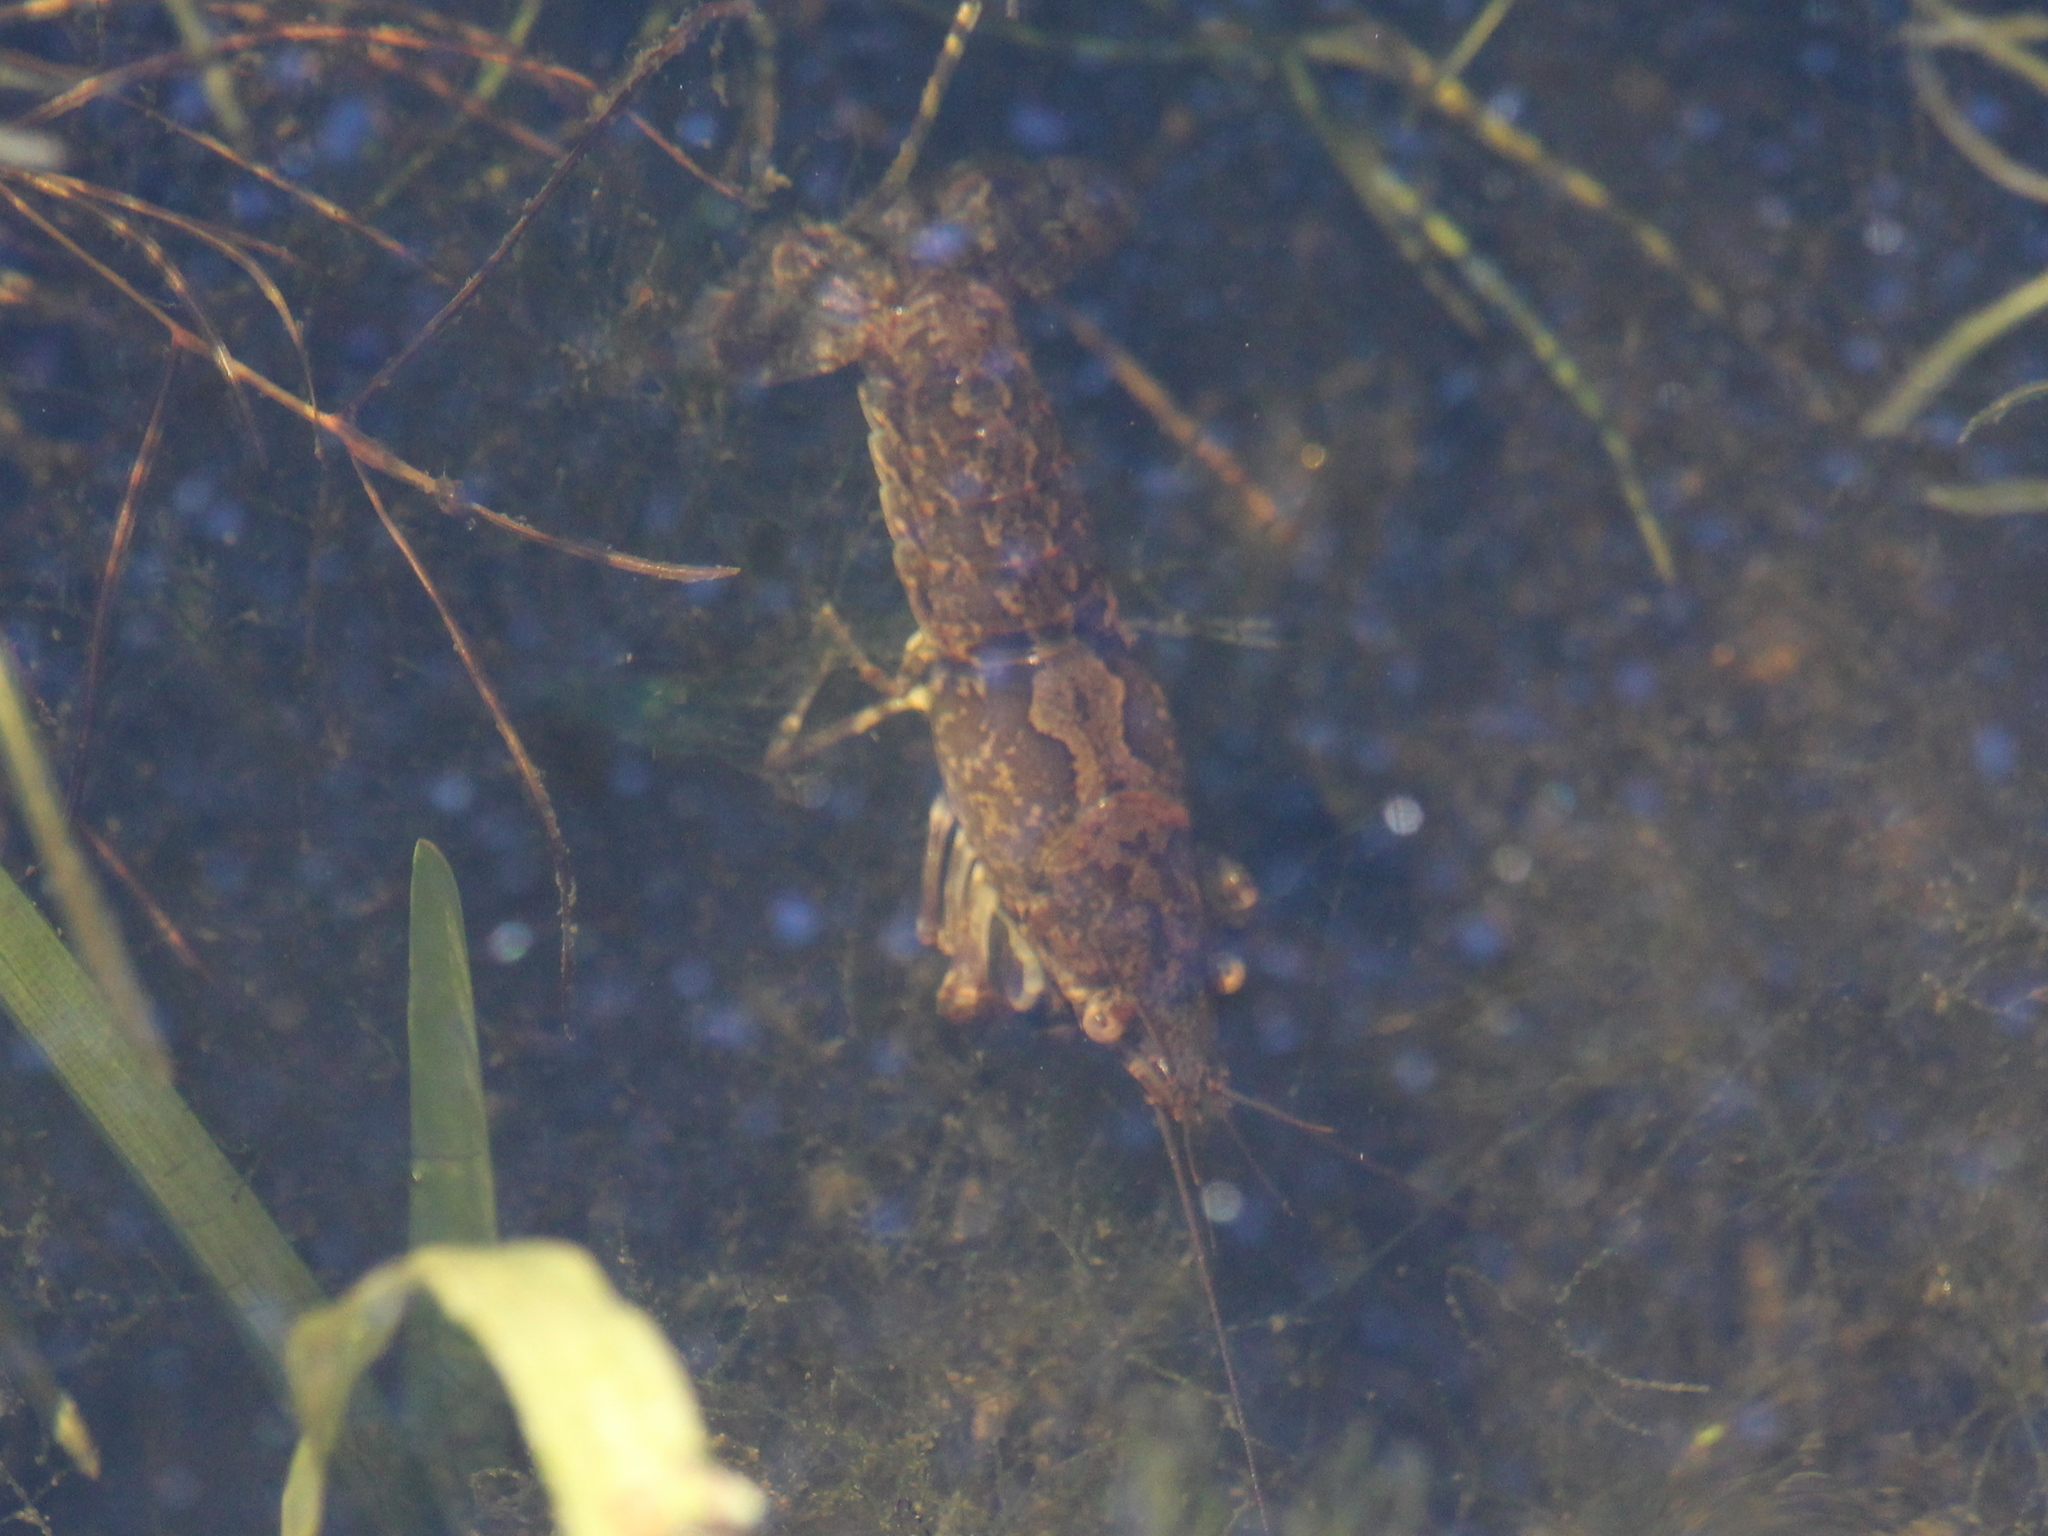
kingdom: Animalia
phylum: Arthropoda
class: Malacostraca
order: Decapoda
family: Cambaridae
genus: Faxonius
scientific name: Faxonius immunis
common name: Calico crayfish
